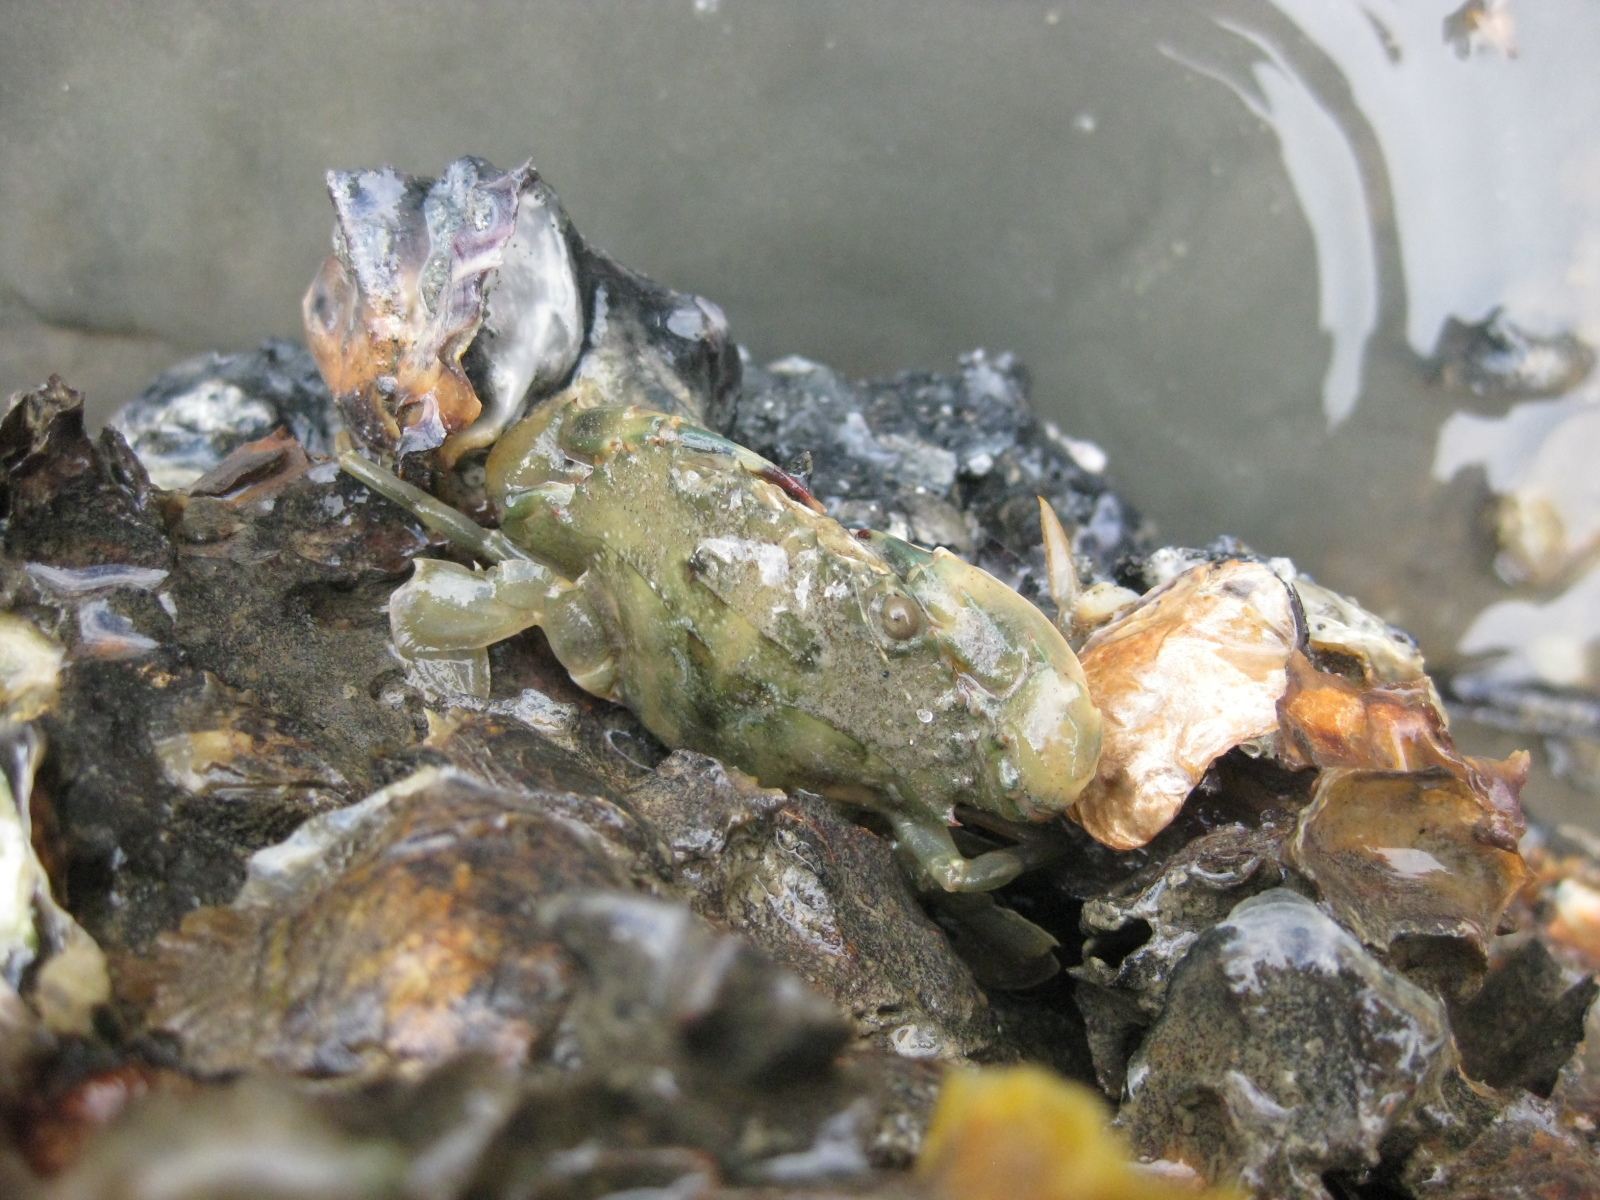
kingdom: Animalia
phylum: Arthropoda
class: Malacostraca
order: Decapoda
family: Portunidae
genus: Charybdis
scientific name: Charybdis japonica
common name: Asian paddle crab
